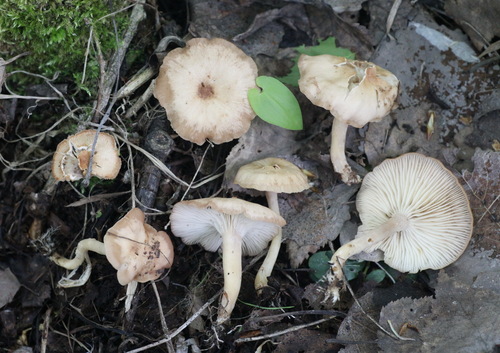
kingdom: Fungi
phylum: Basidiomycota
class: Agaricomycetes
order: Agaricales
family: Tricholomataceae
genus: Rhizocybe
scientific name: Rhizocybe vermicularis
